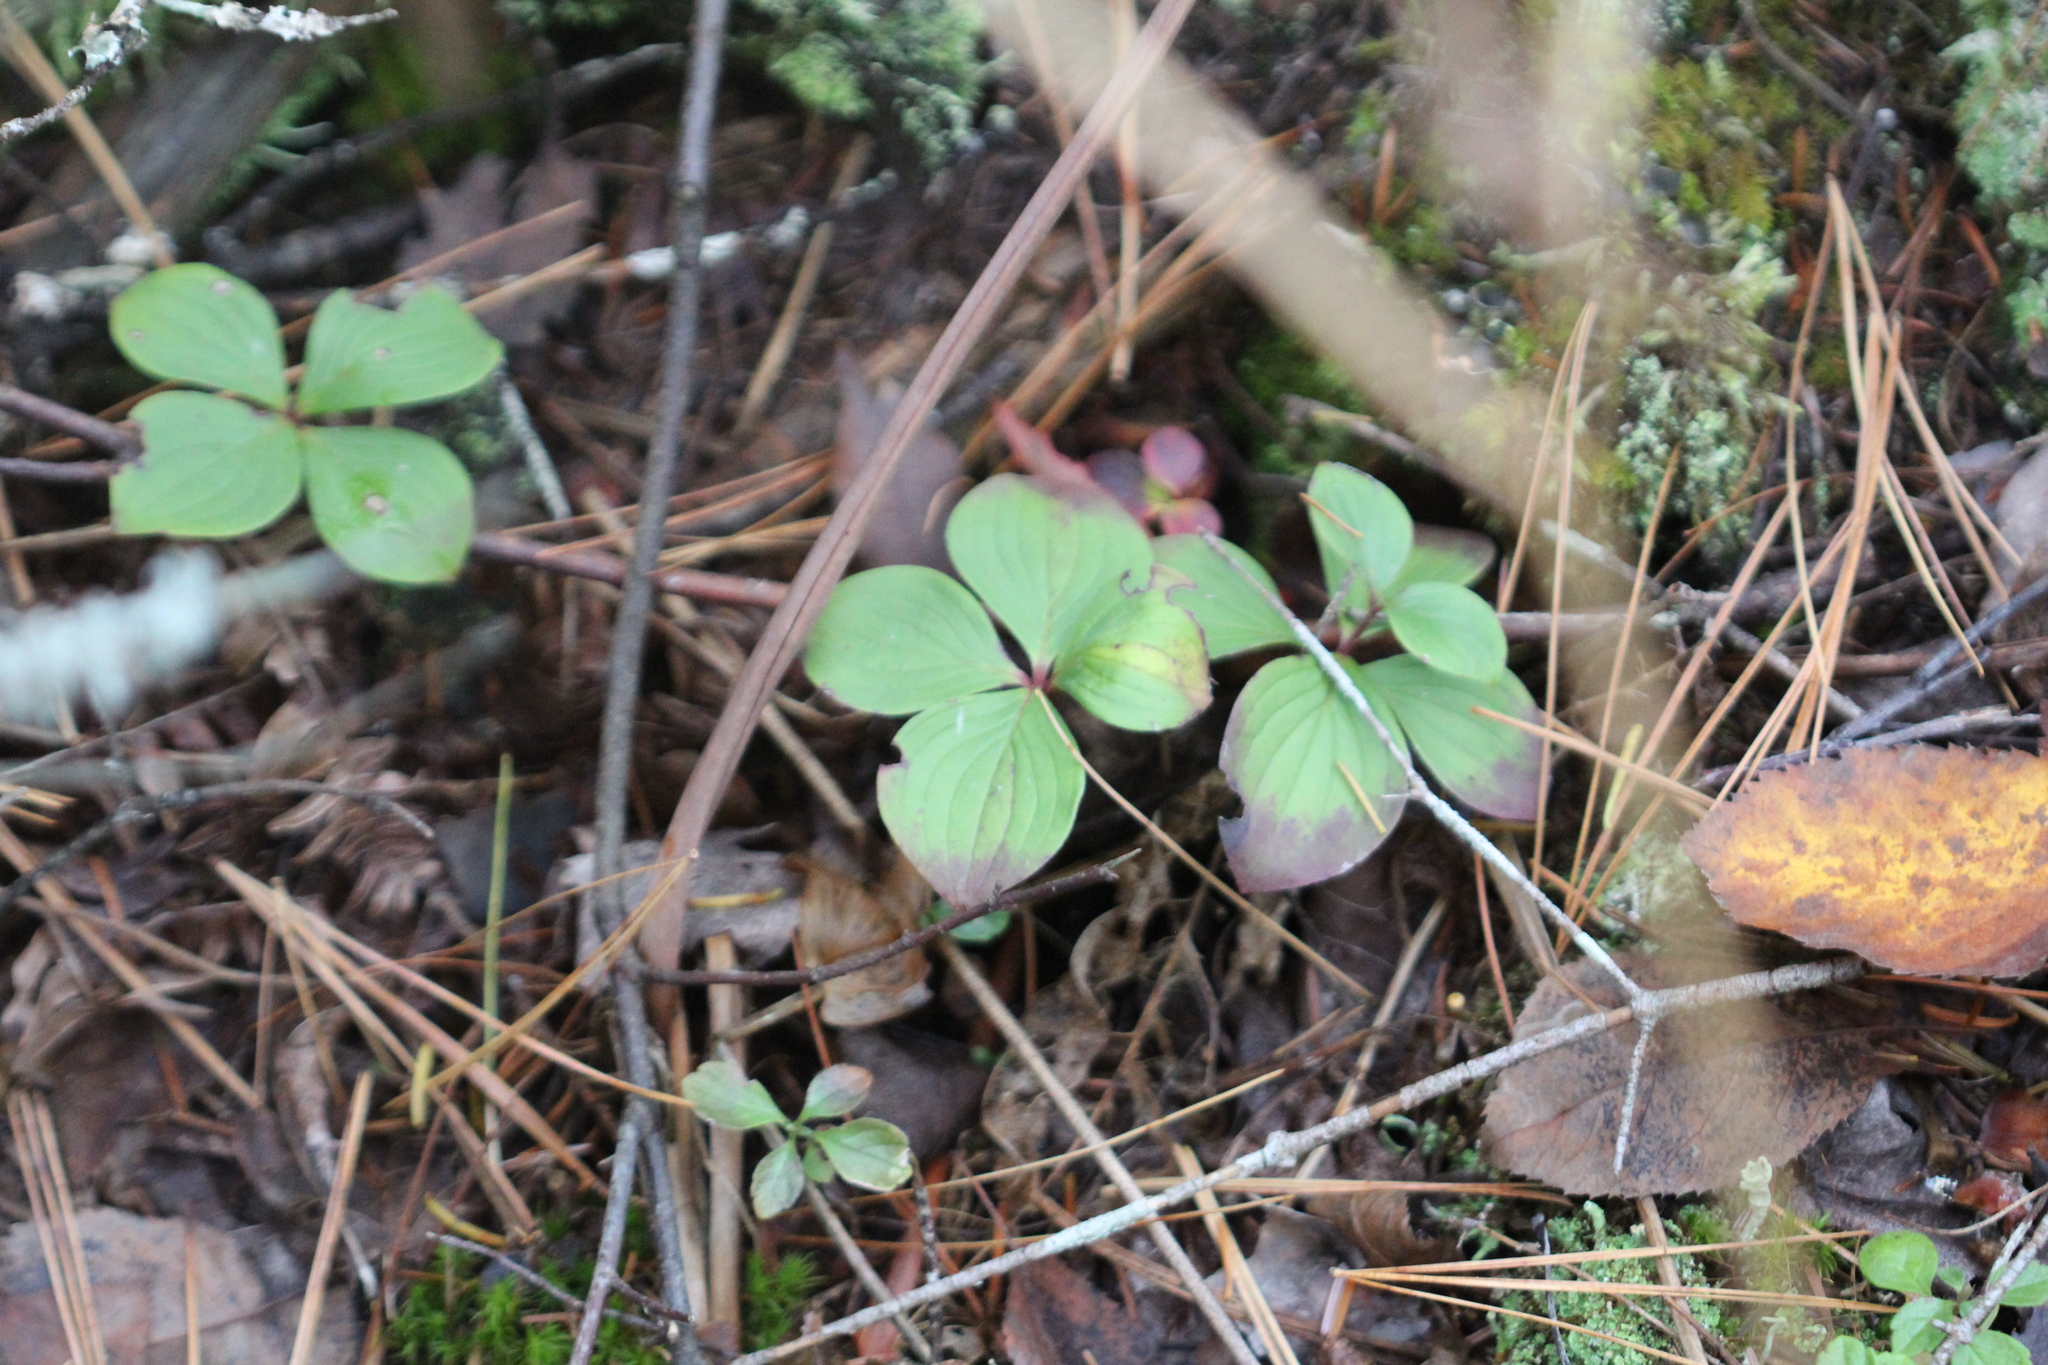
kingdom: Plantae
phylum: Tracheophyta
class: Magnoliopsida
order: Cornales
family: Cornaceae
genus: Cornus
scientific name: Cornus canadensis
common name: Creeping dogwood
